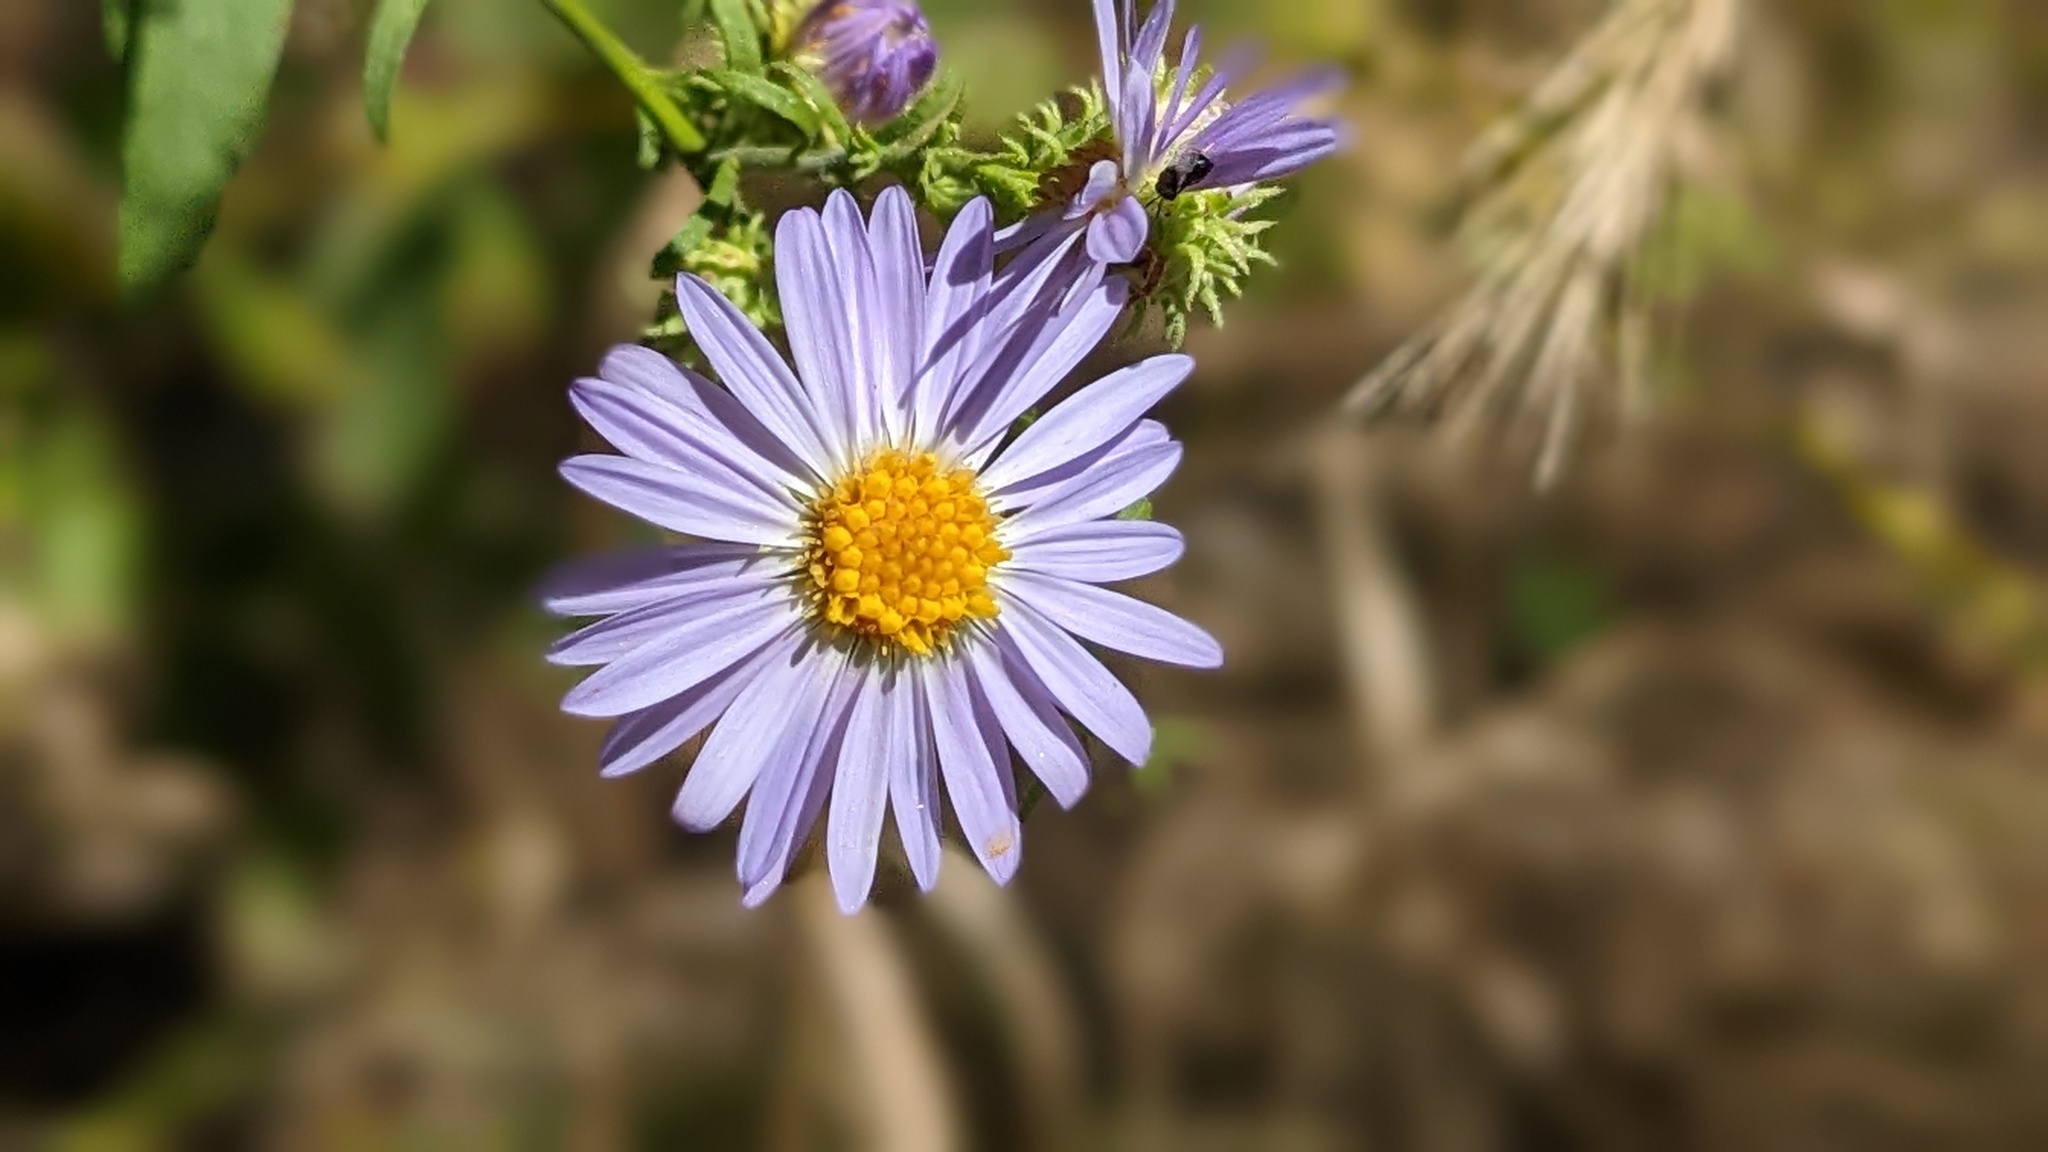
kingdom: Plantae
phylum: Tracheophyta
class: Magnoliopsida
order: Asterales
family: Asteraceae
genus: Symphyotrichum
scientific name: Symphyotrichum anomalum
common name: Many-ray aster
